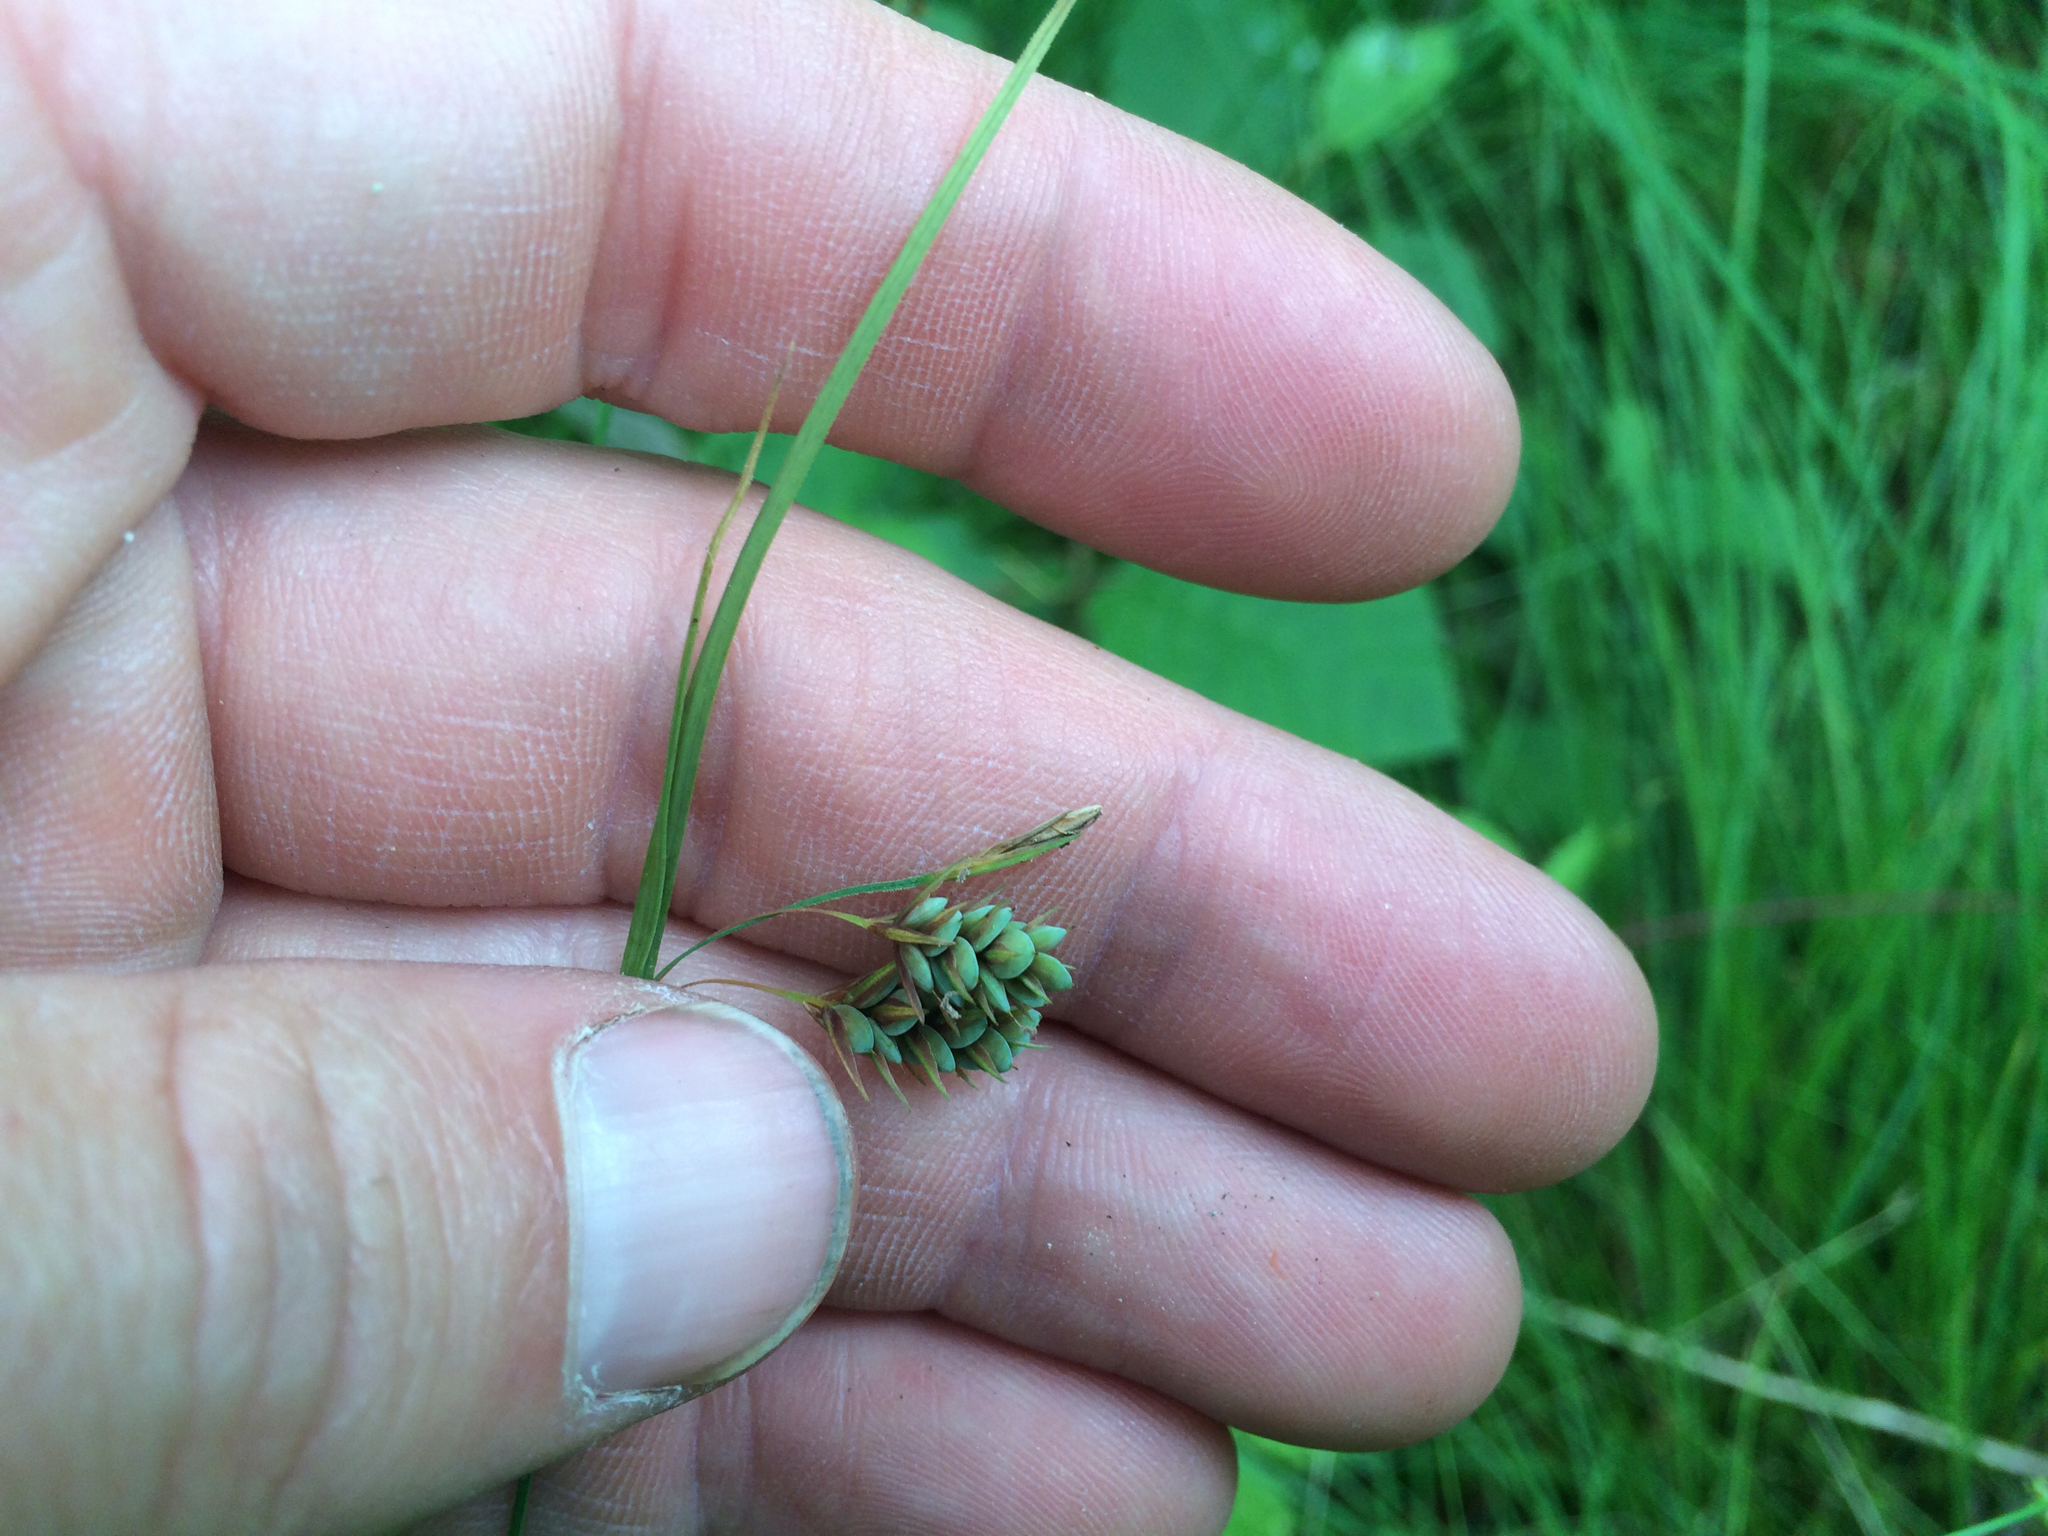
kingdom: Plantae
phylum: Tracheophyta
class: Liliopsida
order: Poales
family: Cyperaceae
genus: Carex
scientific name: Carex magellanica
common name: Bog sedge
